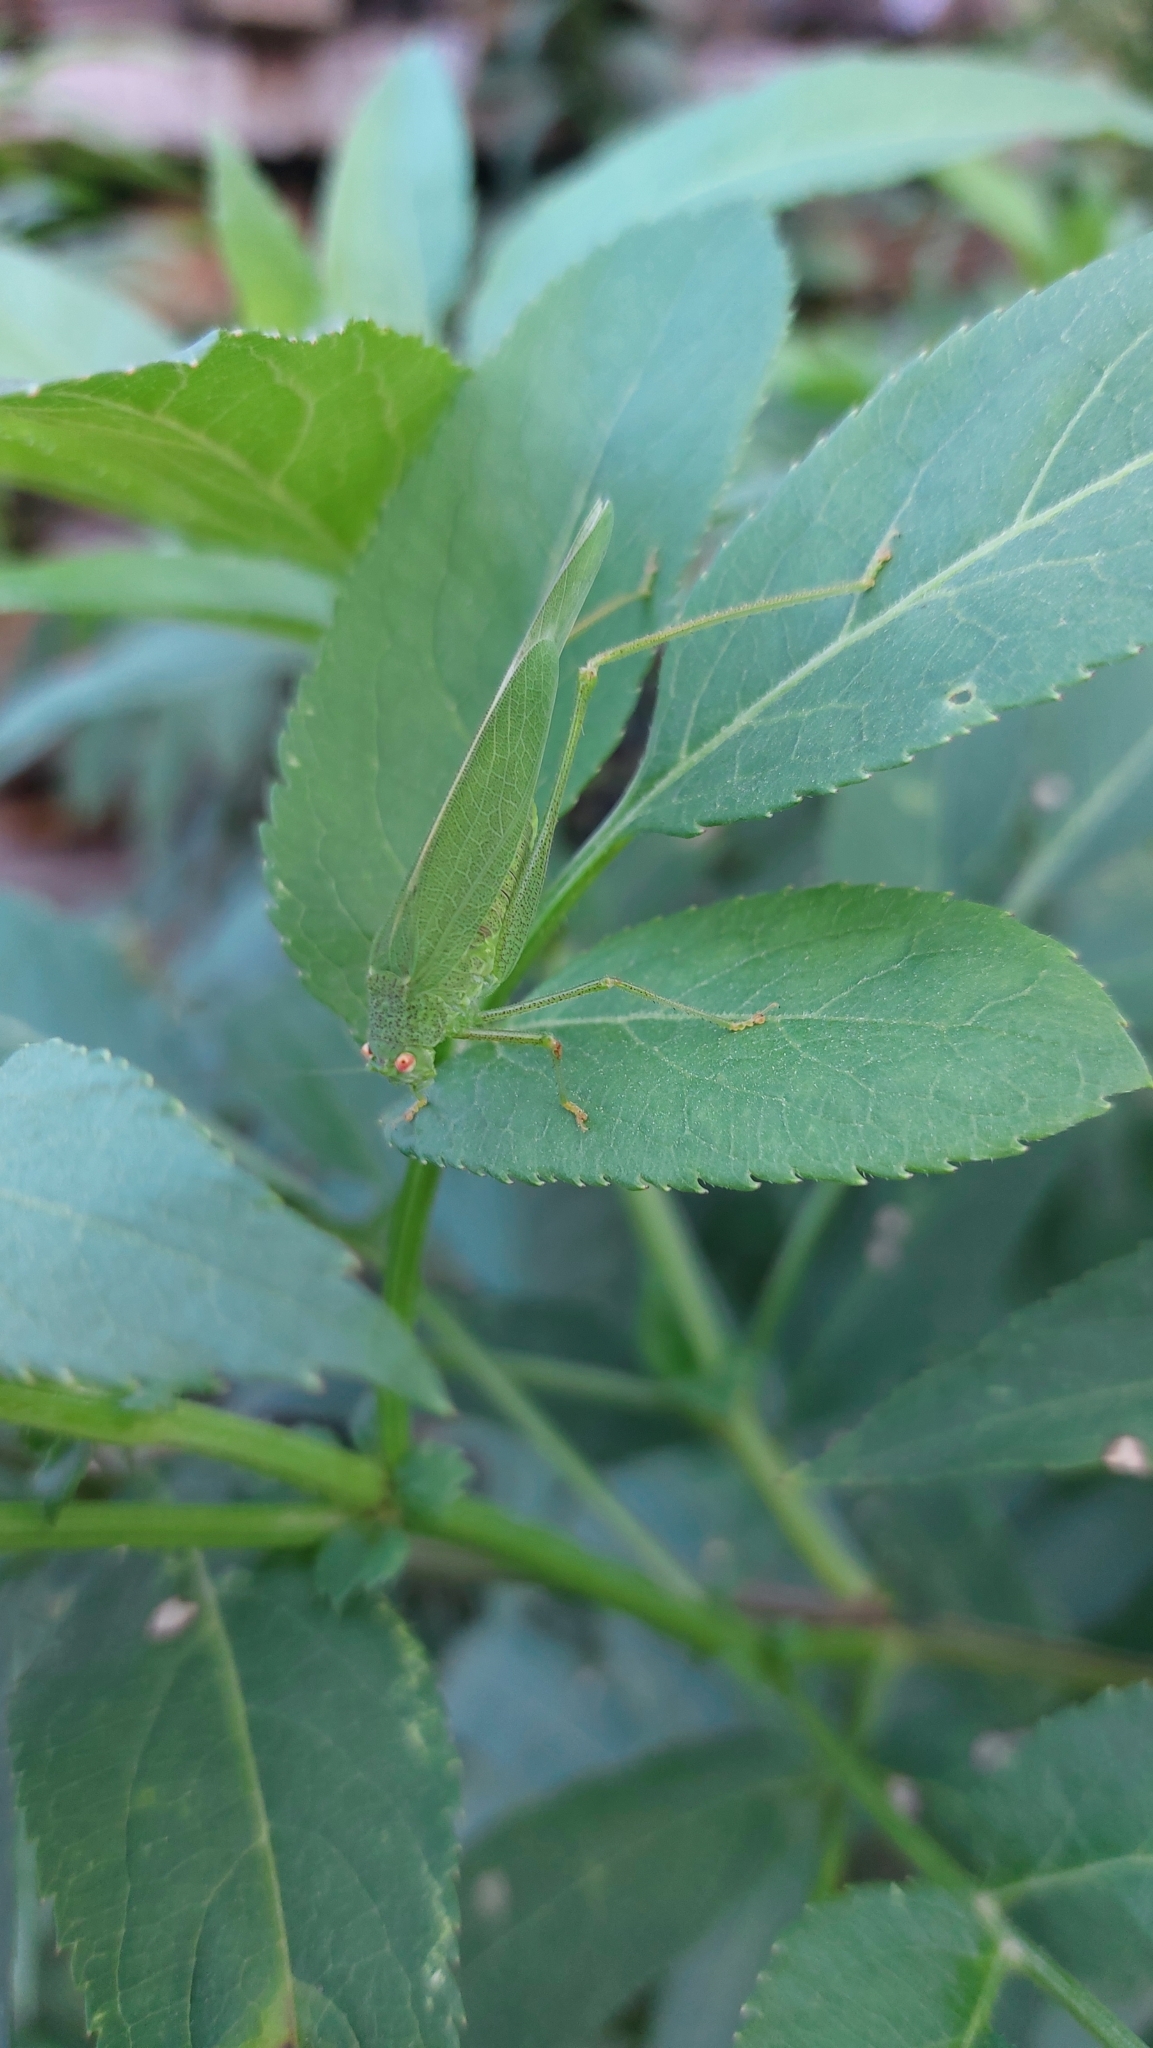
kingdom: Animalia
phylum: Arthropoda
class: Insecta
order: Orthoptera
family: Tettigoniidae
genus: Phaneroptera
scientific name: Phaneroptera nana
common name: Southern sickle bush-cricket
